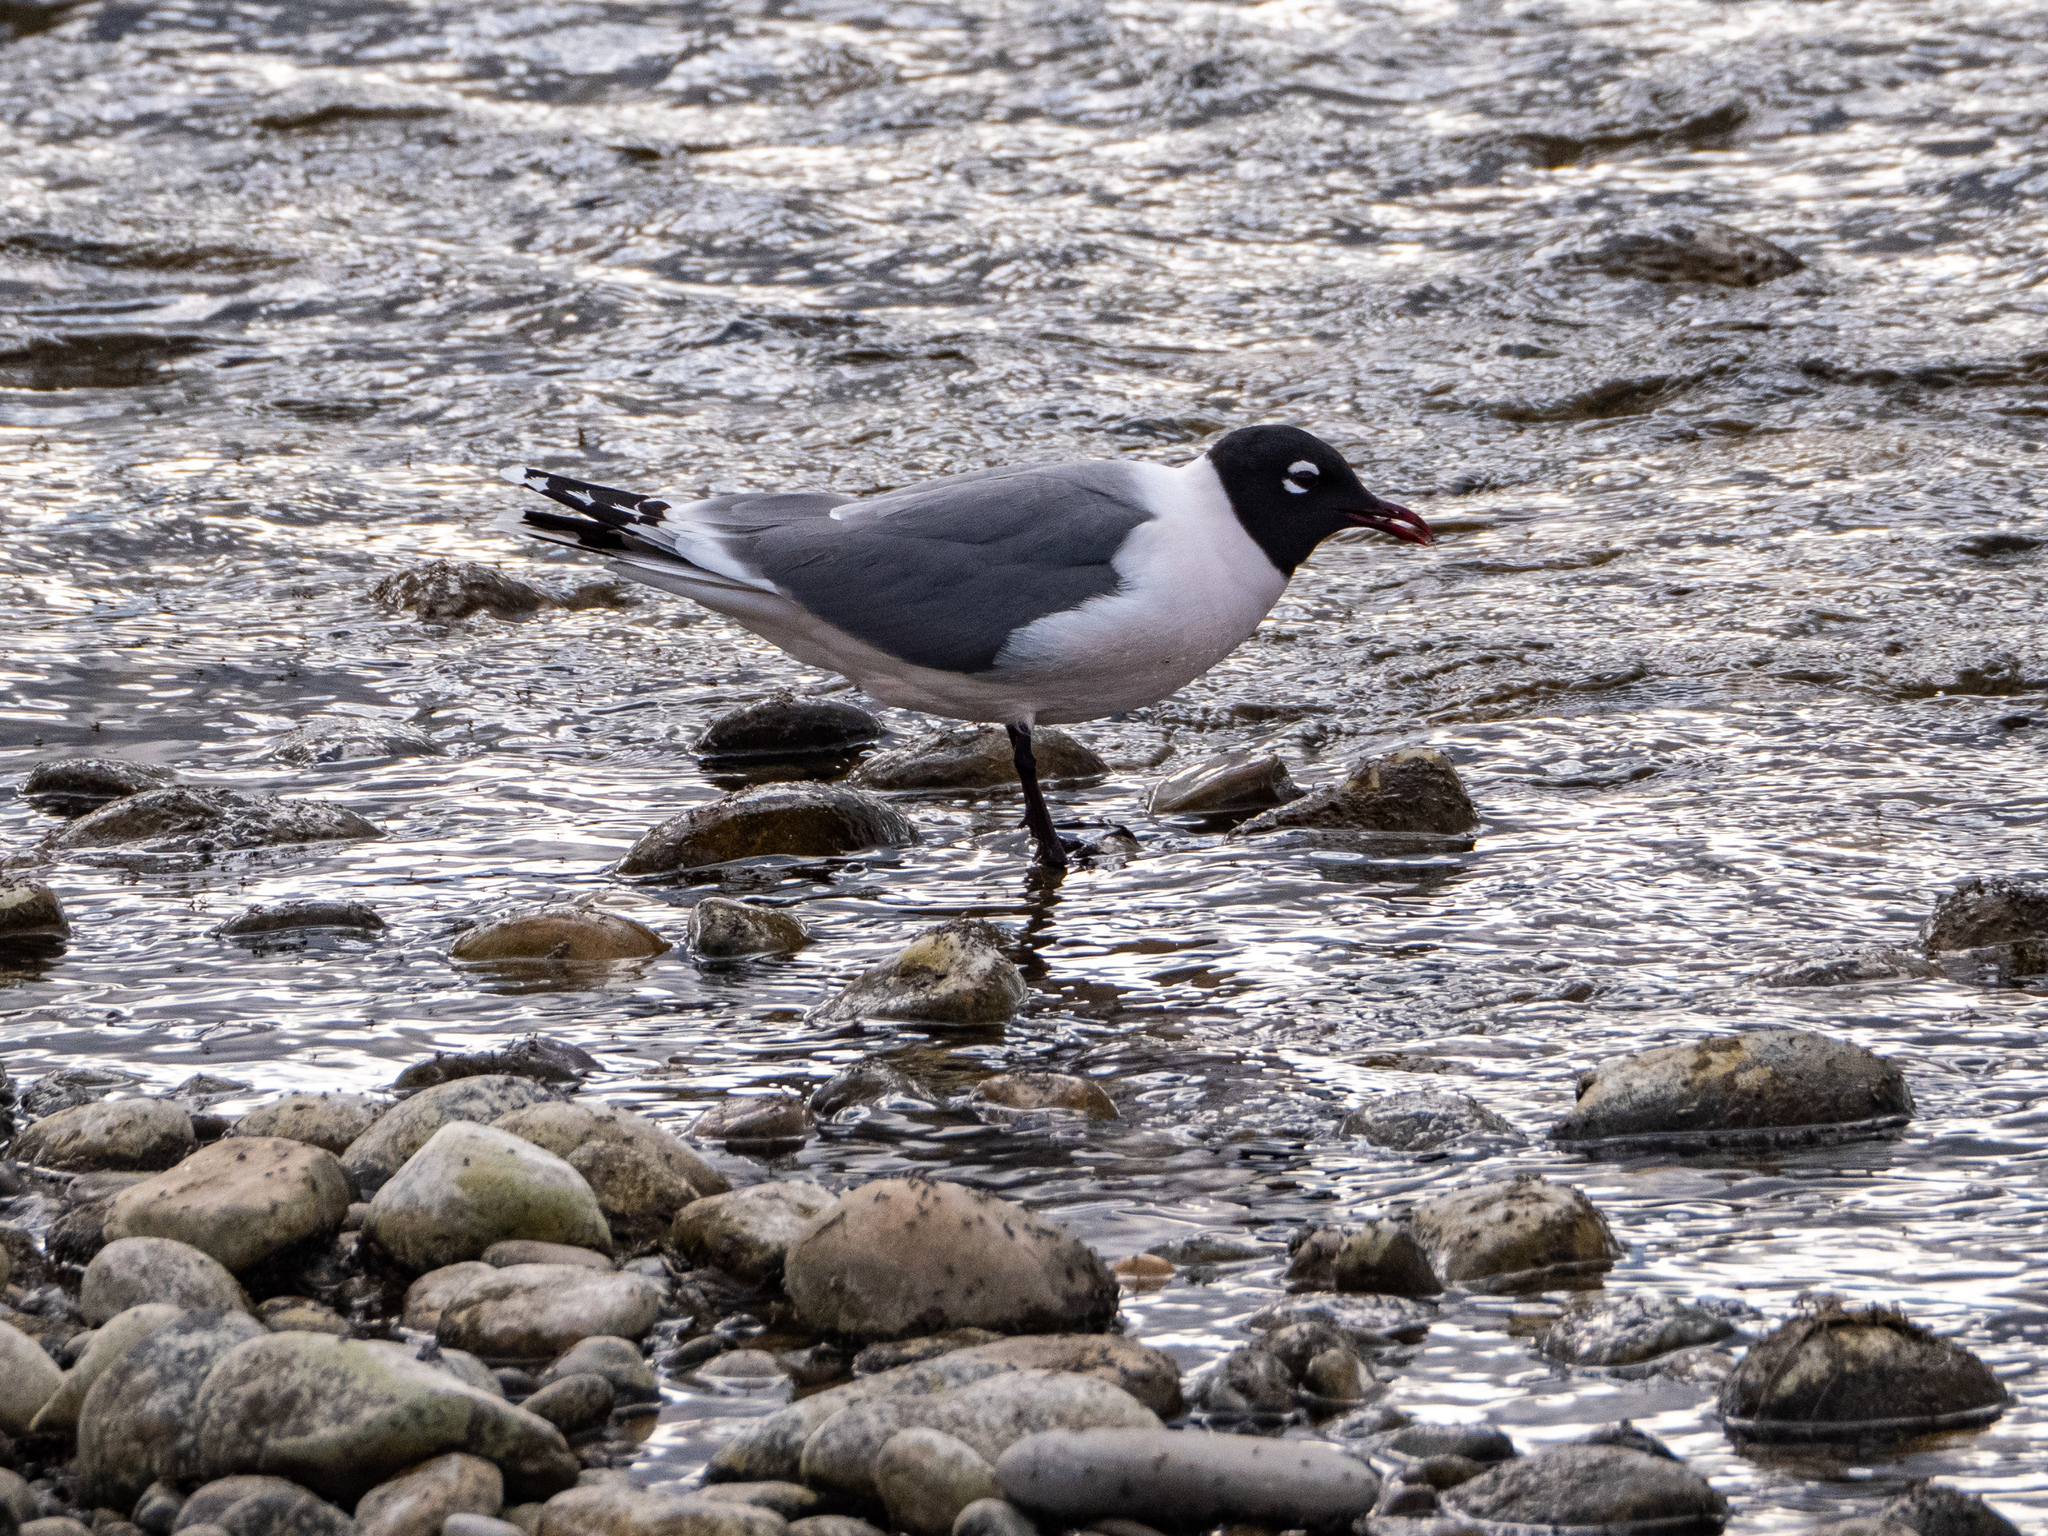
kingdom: Animalia
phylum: Chordata
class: Aves
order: Charadriiformes
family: Laridae
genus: Leucophaeus
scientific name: Leucophaeus pipixcan
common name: Franklin's gull
